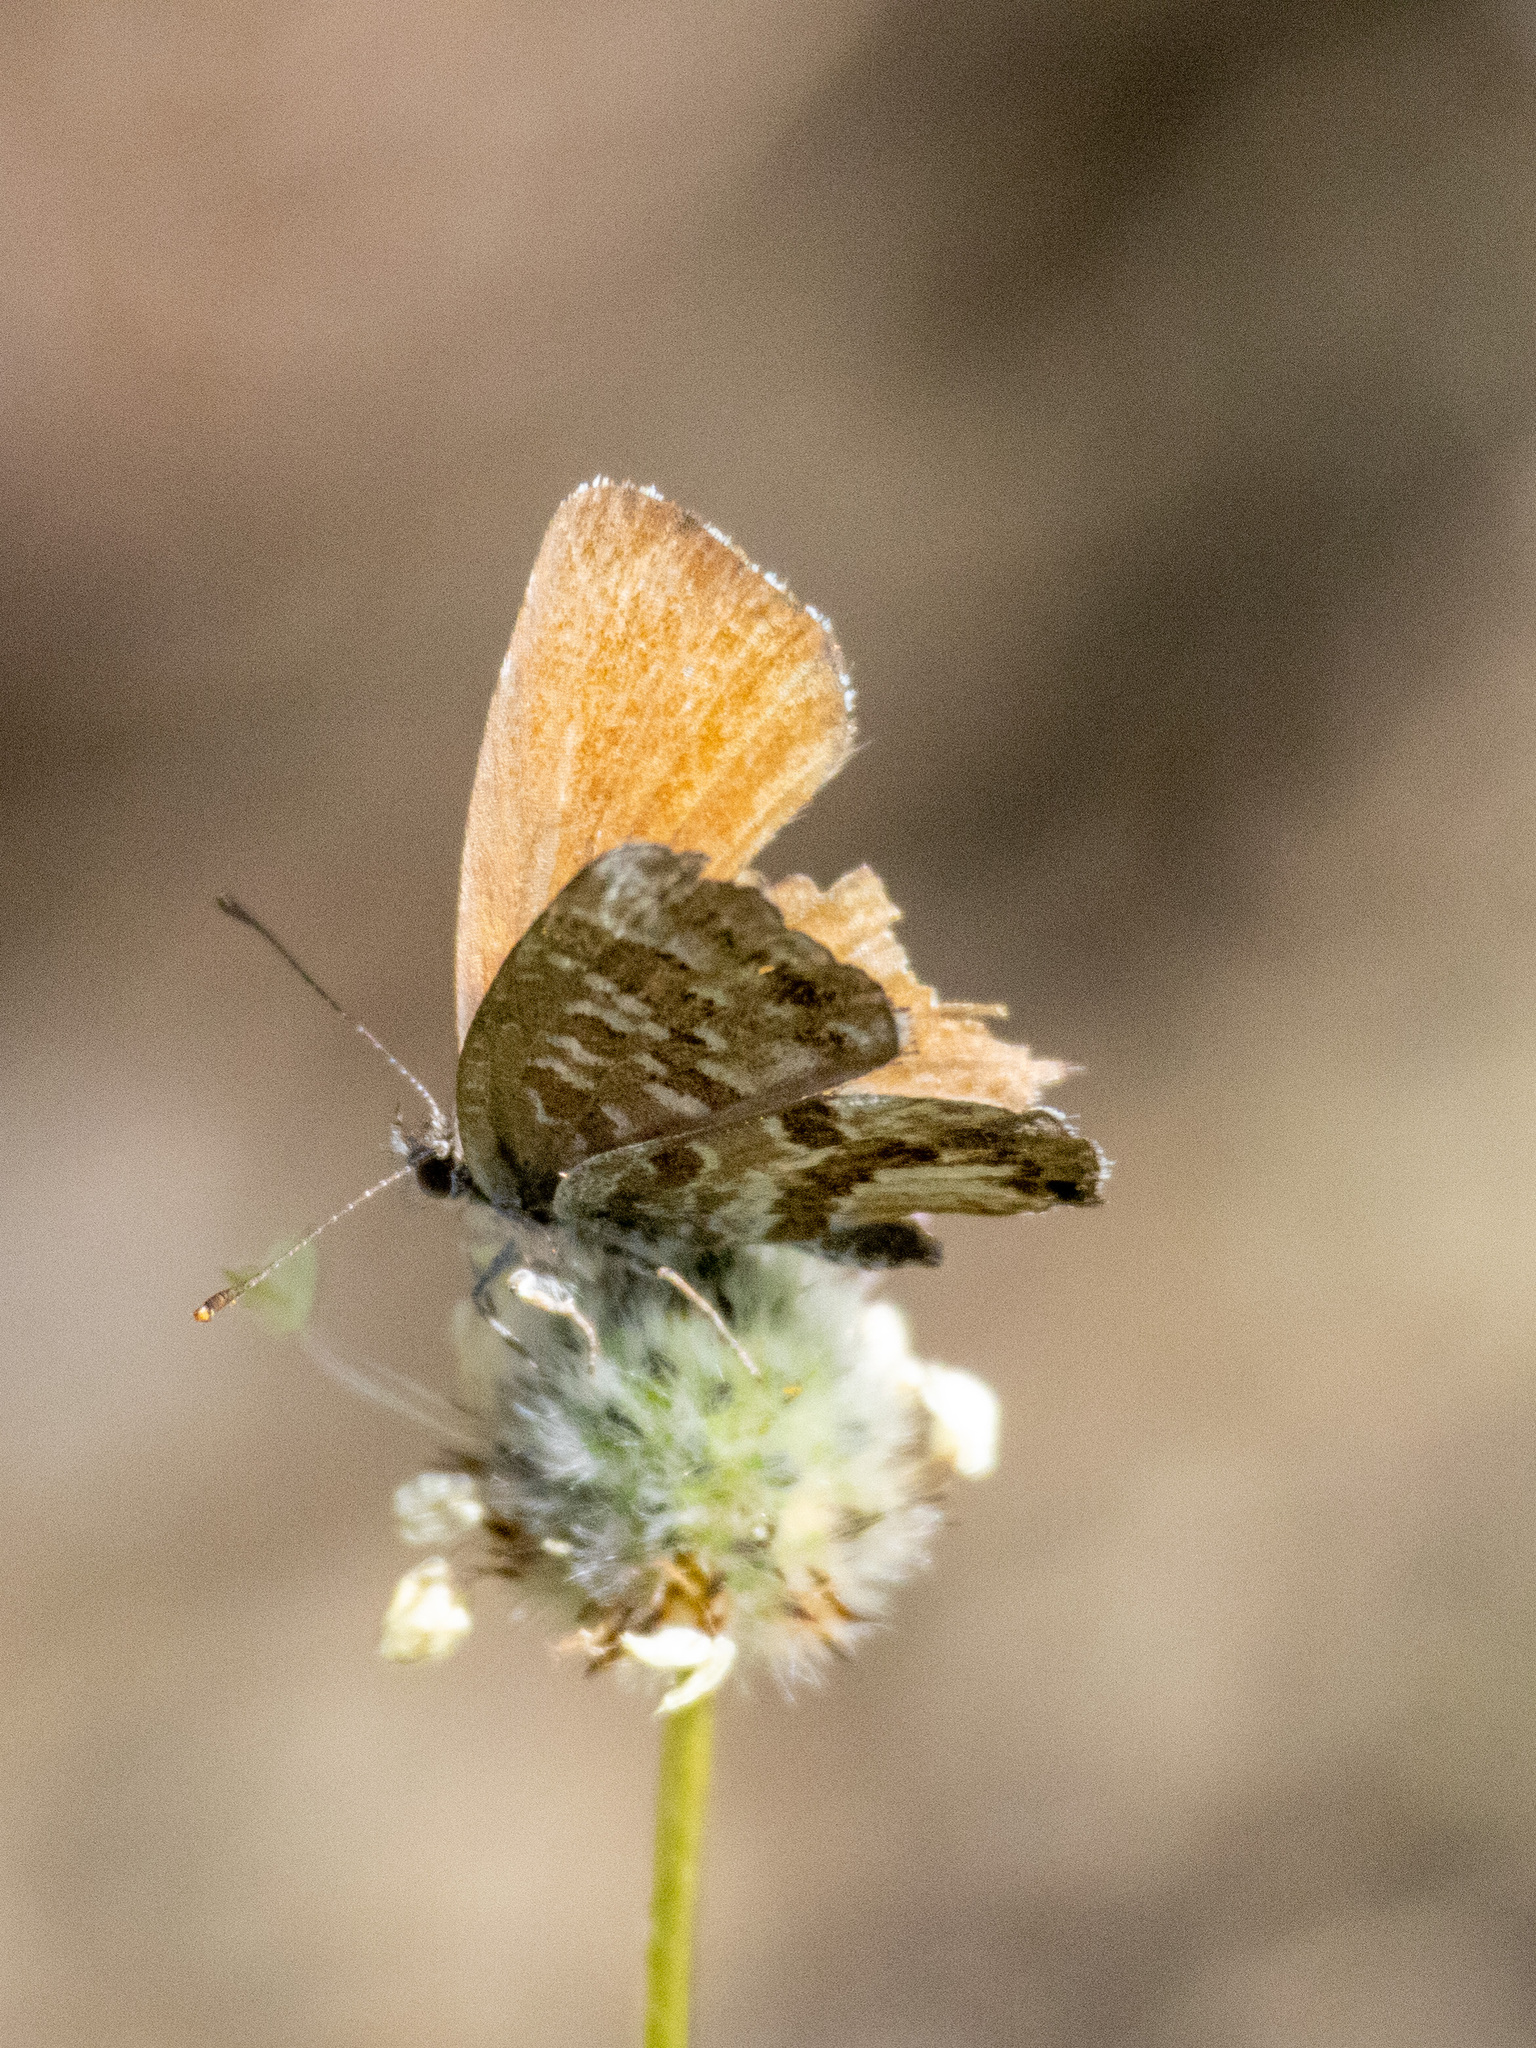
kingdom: Animalia
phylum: Arthropoda
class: Insecta
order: Lepidoptera
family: Lycaenidae
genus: Cacyreus
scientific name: Cacyreus marshalli
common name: Geranium bronze
